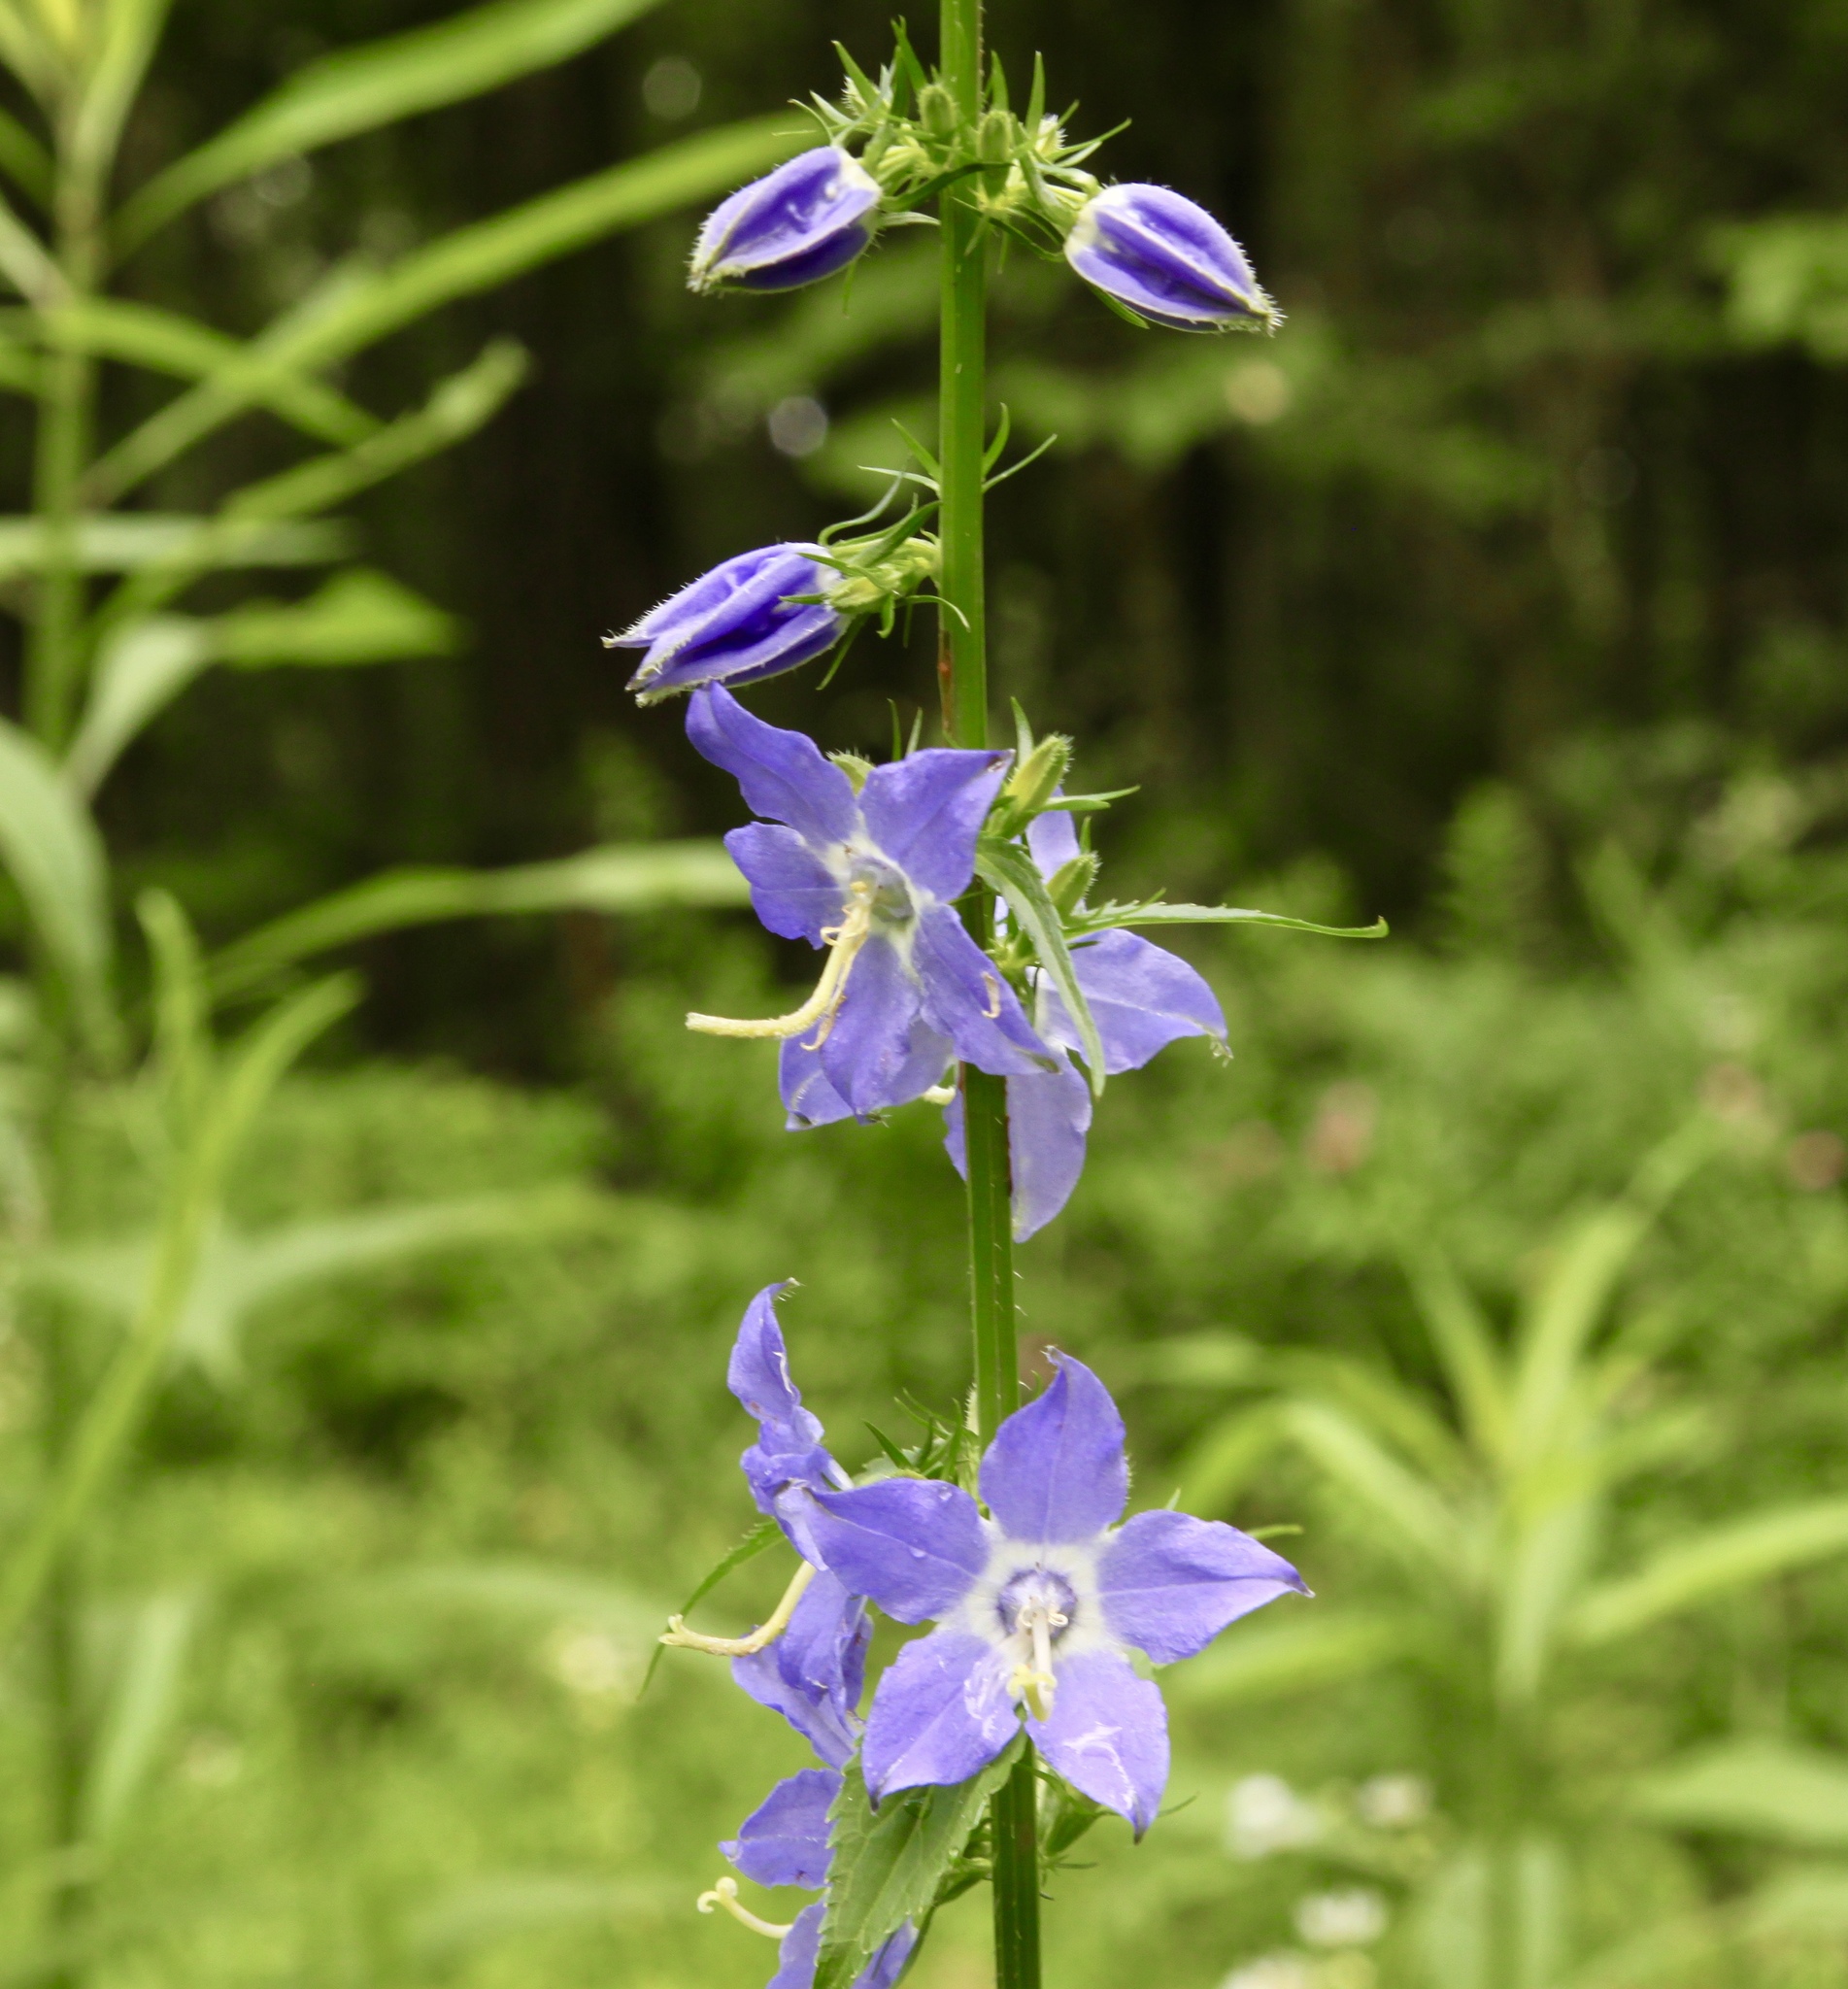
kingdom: Plantae
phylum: Tracheophyta
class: Magnoliopsida
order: Asterales
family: Campanulaceae
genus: Campanulastrum
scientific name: Campanulastrum americanum
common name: American bellflower
